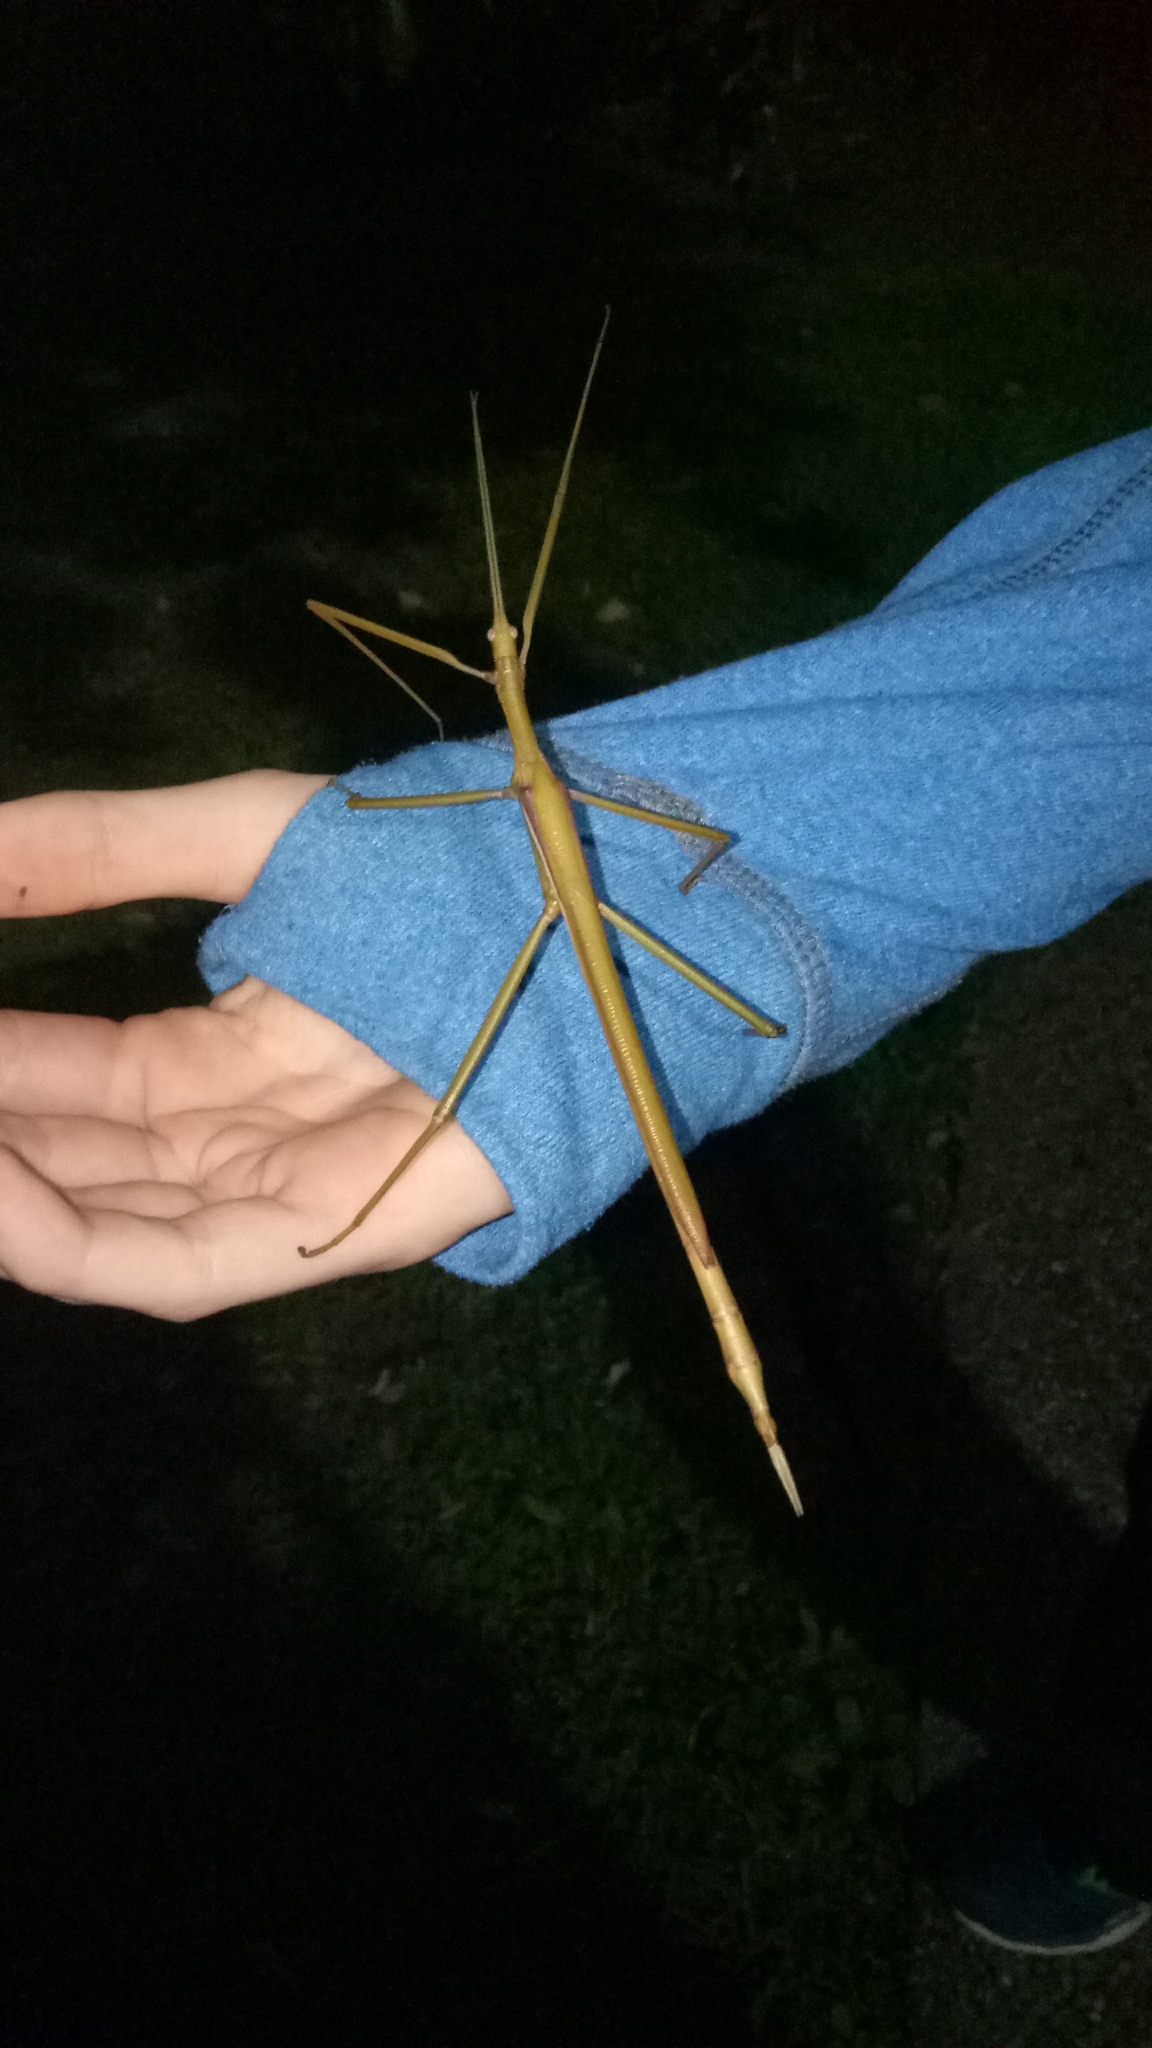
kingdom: Animalia
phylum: Arthropoda
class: Insecta
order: Phasmida
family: Phasmatidae
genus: Tropidoderus
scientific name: Tropidoderus childrenii
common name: Children's stick insect
